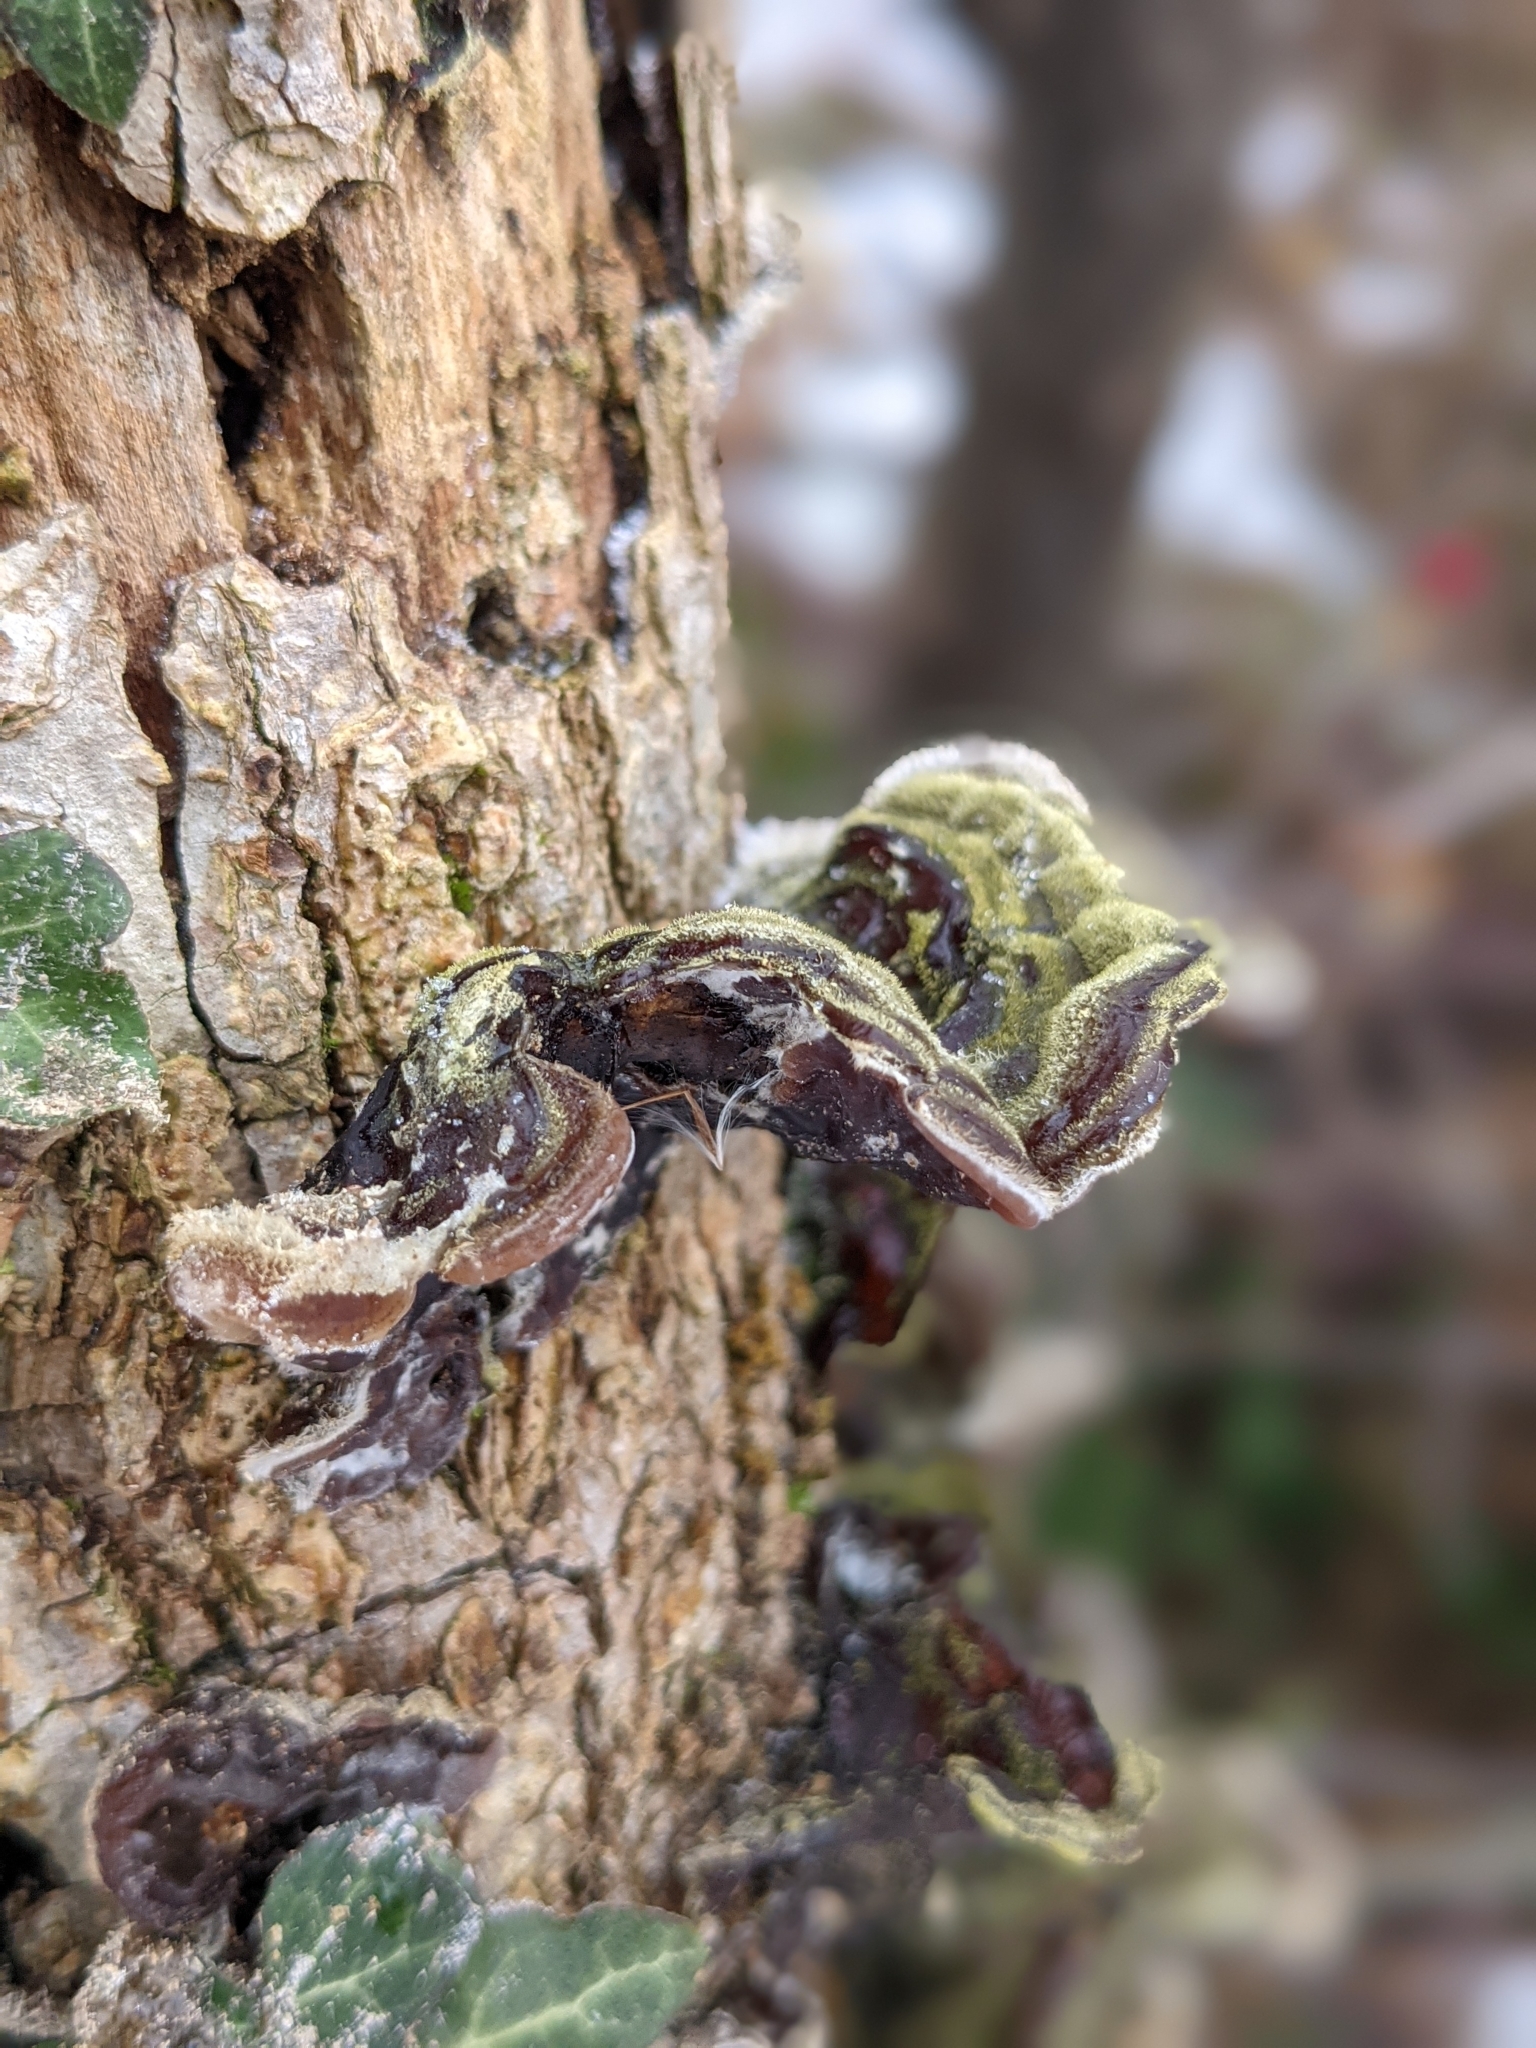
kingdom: Fungi
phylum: Basidiomycota
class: Agaricomycetes
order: Auriculariales
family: Auriculariaceae
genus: Auricularia
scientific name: Auricularia mesenterica
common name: Tripe fungus
